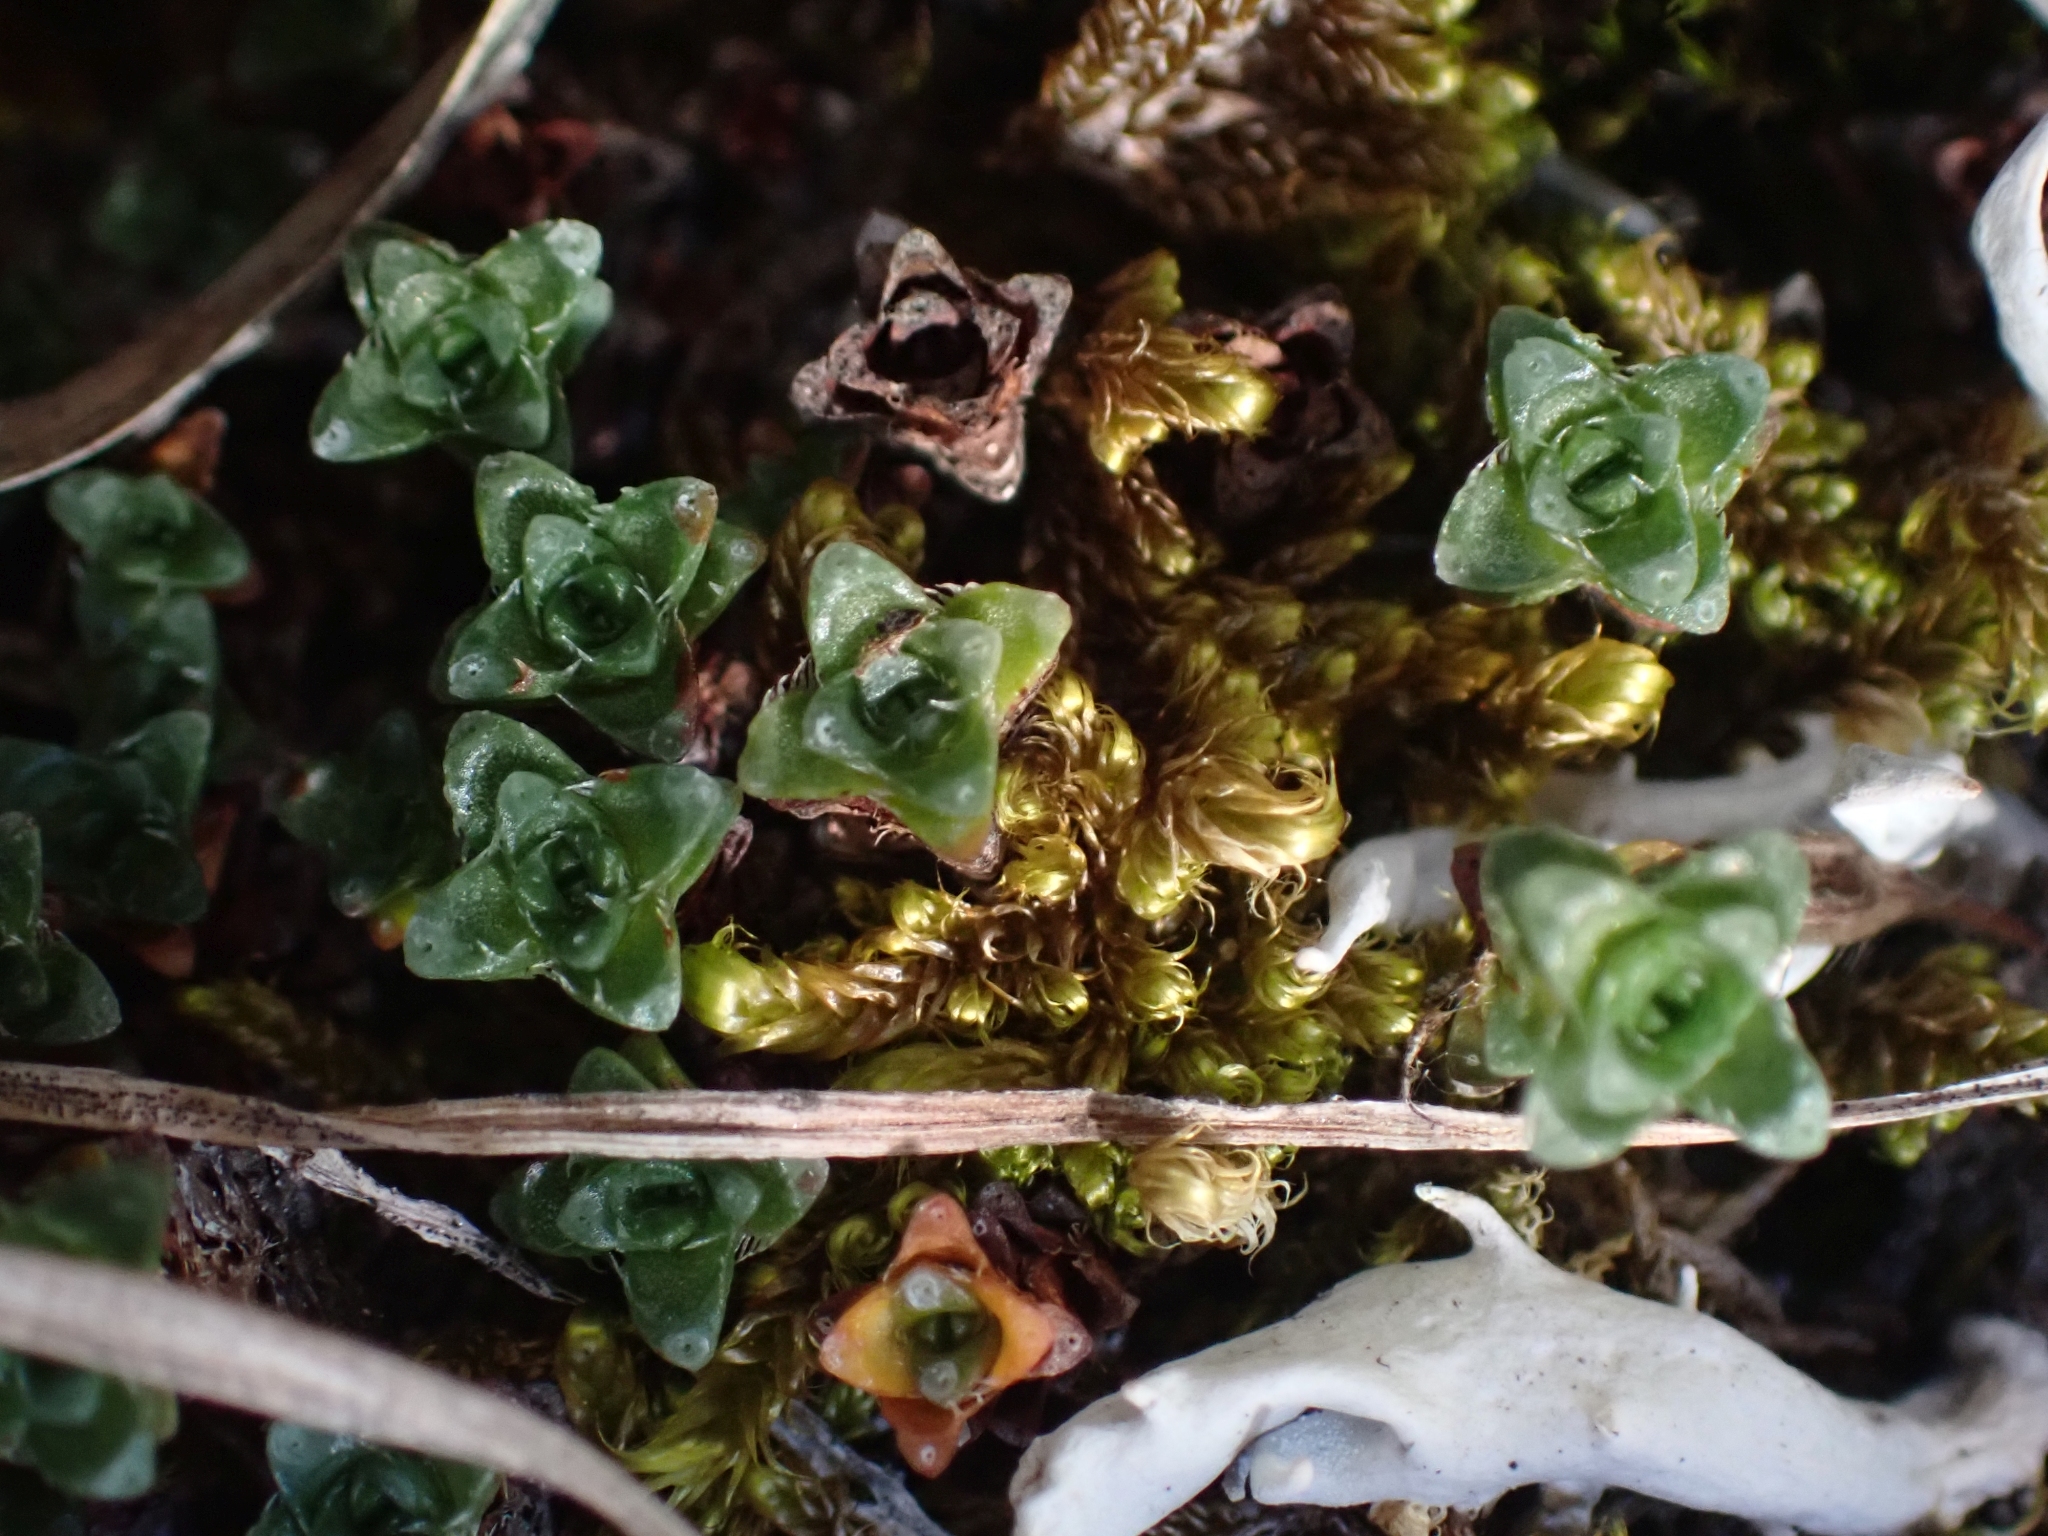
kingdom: Plantae
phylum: Tracheophyta
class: Magnoliopsida
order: Saxifragales
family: Saxifragaceae
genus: Saxifraga
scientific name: Saxifraga oppositifolia
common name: Purple saxifrage
